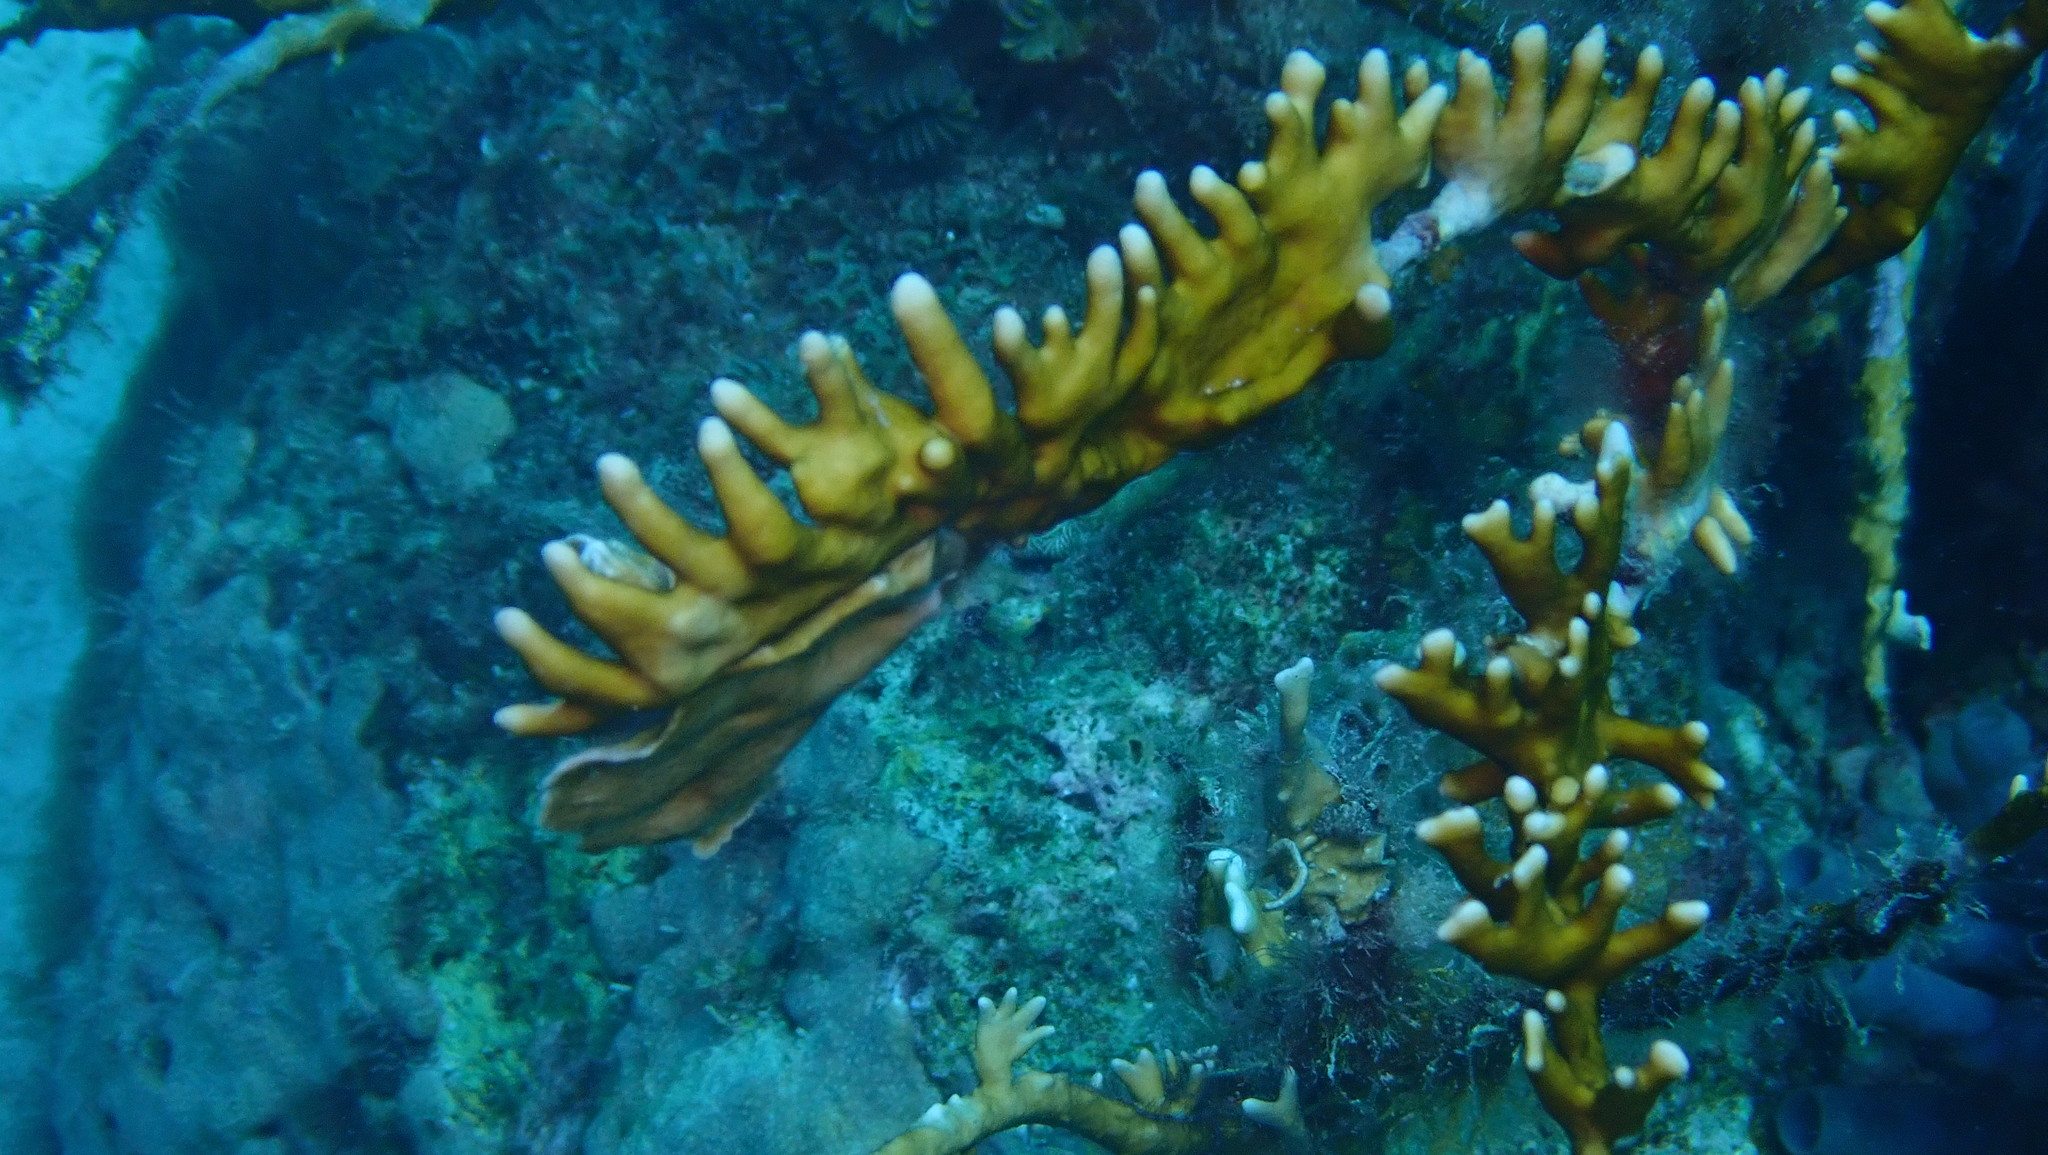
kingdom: Animalia
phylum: Cnidaria
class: Hydrozoa
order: Anthoathecata
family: Milleporidae
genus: Millepora
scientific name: Millepora alcicornis
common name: Branching fire coral
